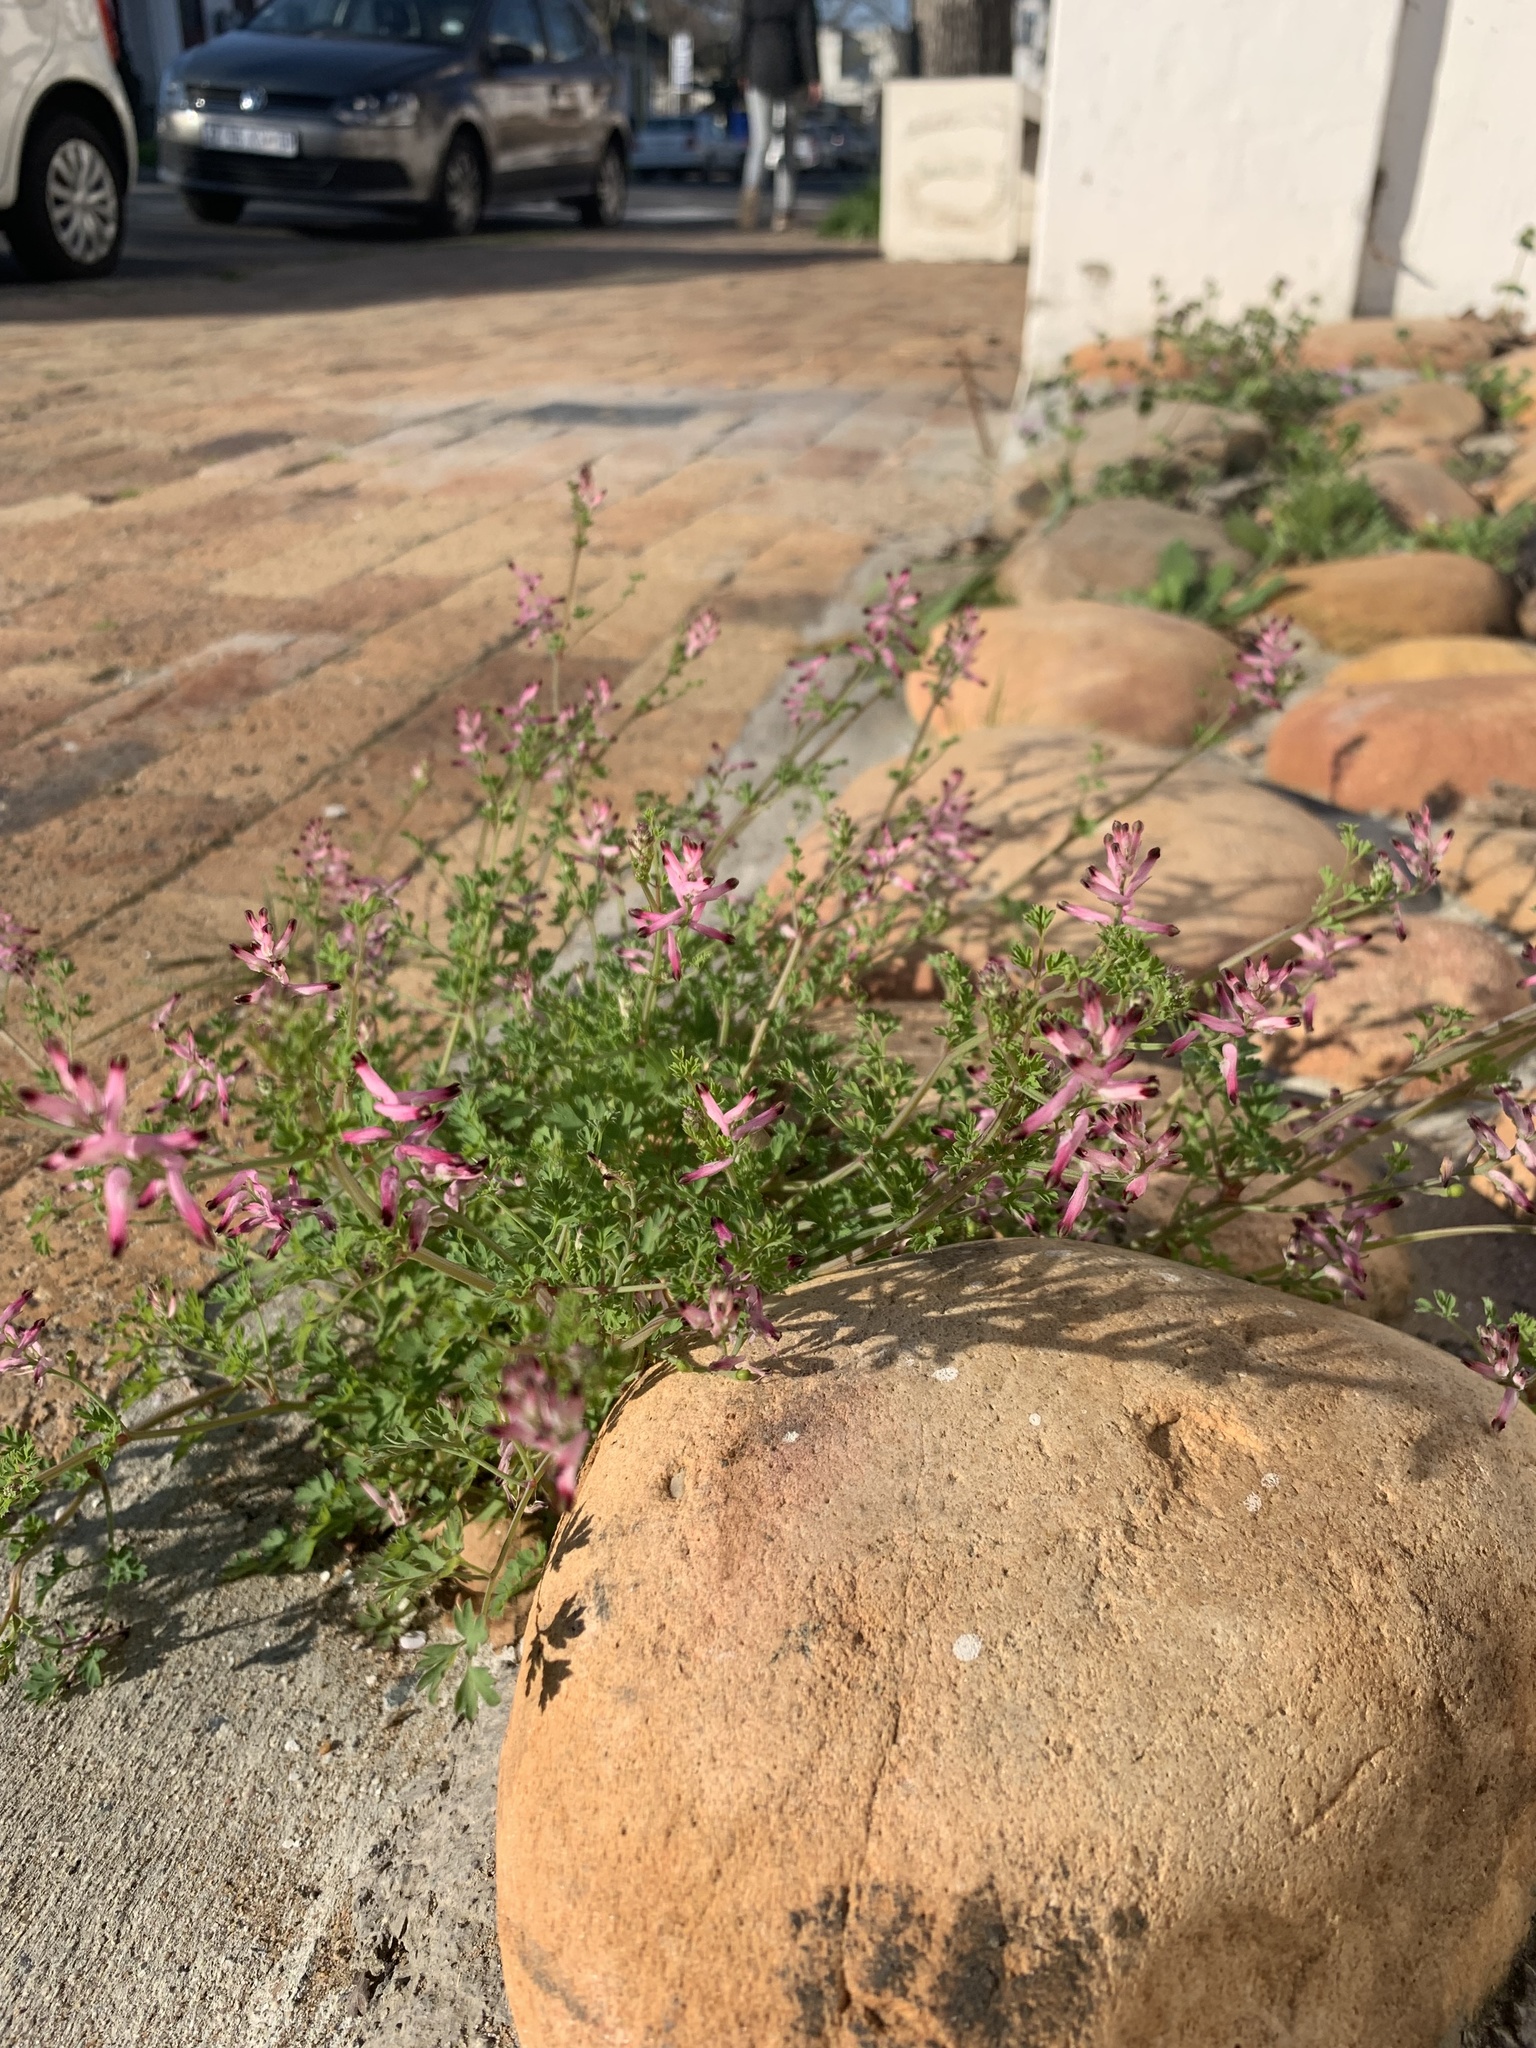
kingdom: Plantae
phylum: Tracheophyta
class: Magnoliopsida
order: Ranunculales
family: Papaveraceae
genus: Fumaria
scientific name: Fumaria muralis
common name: Common ramping-fumitory
